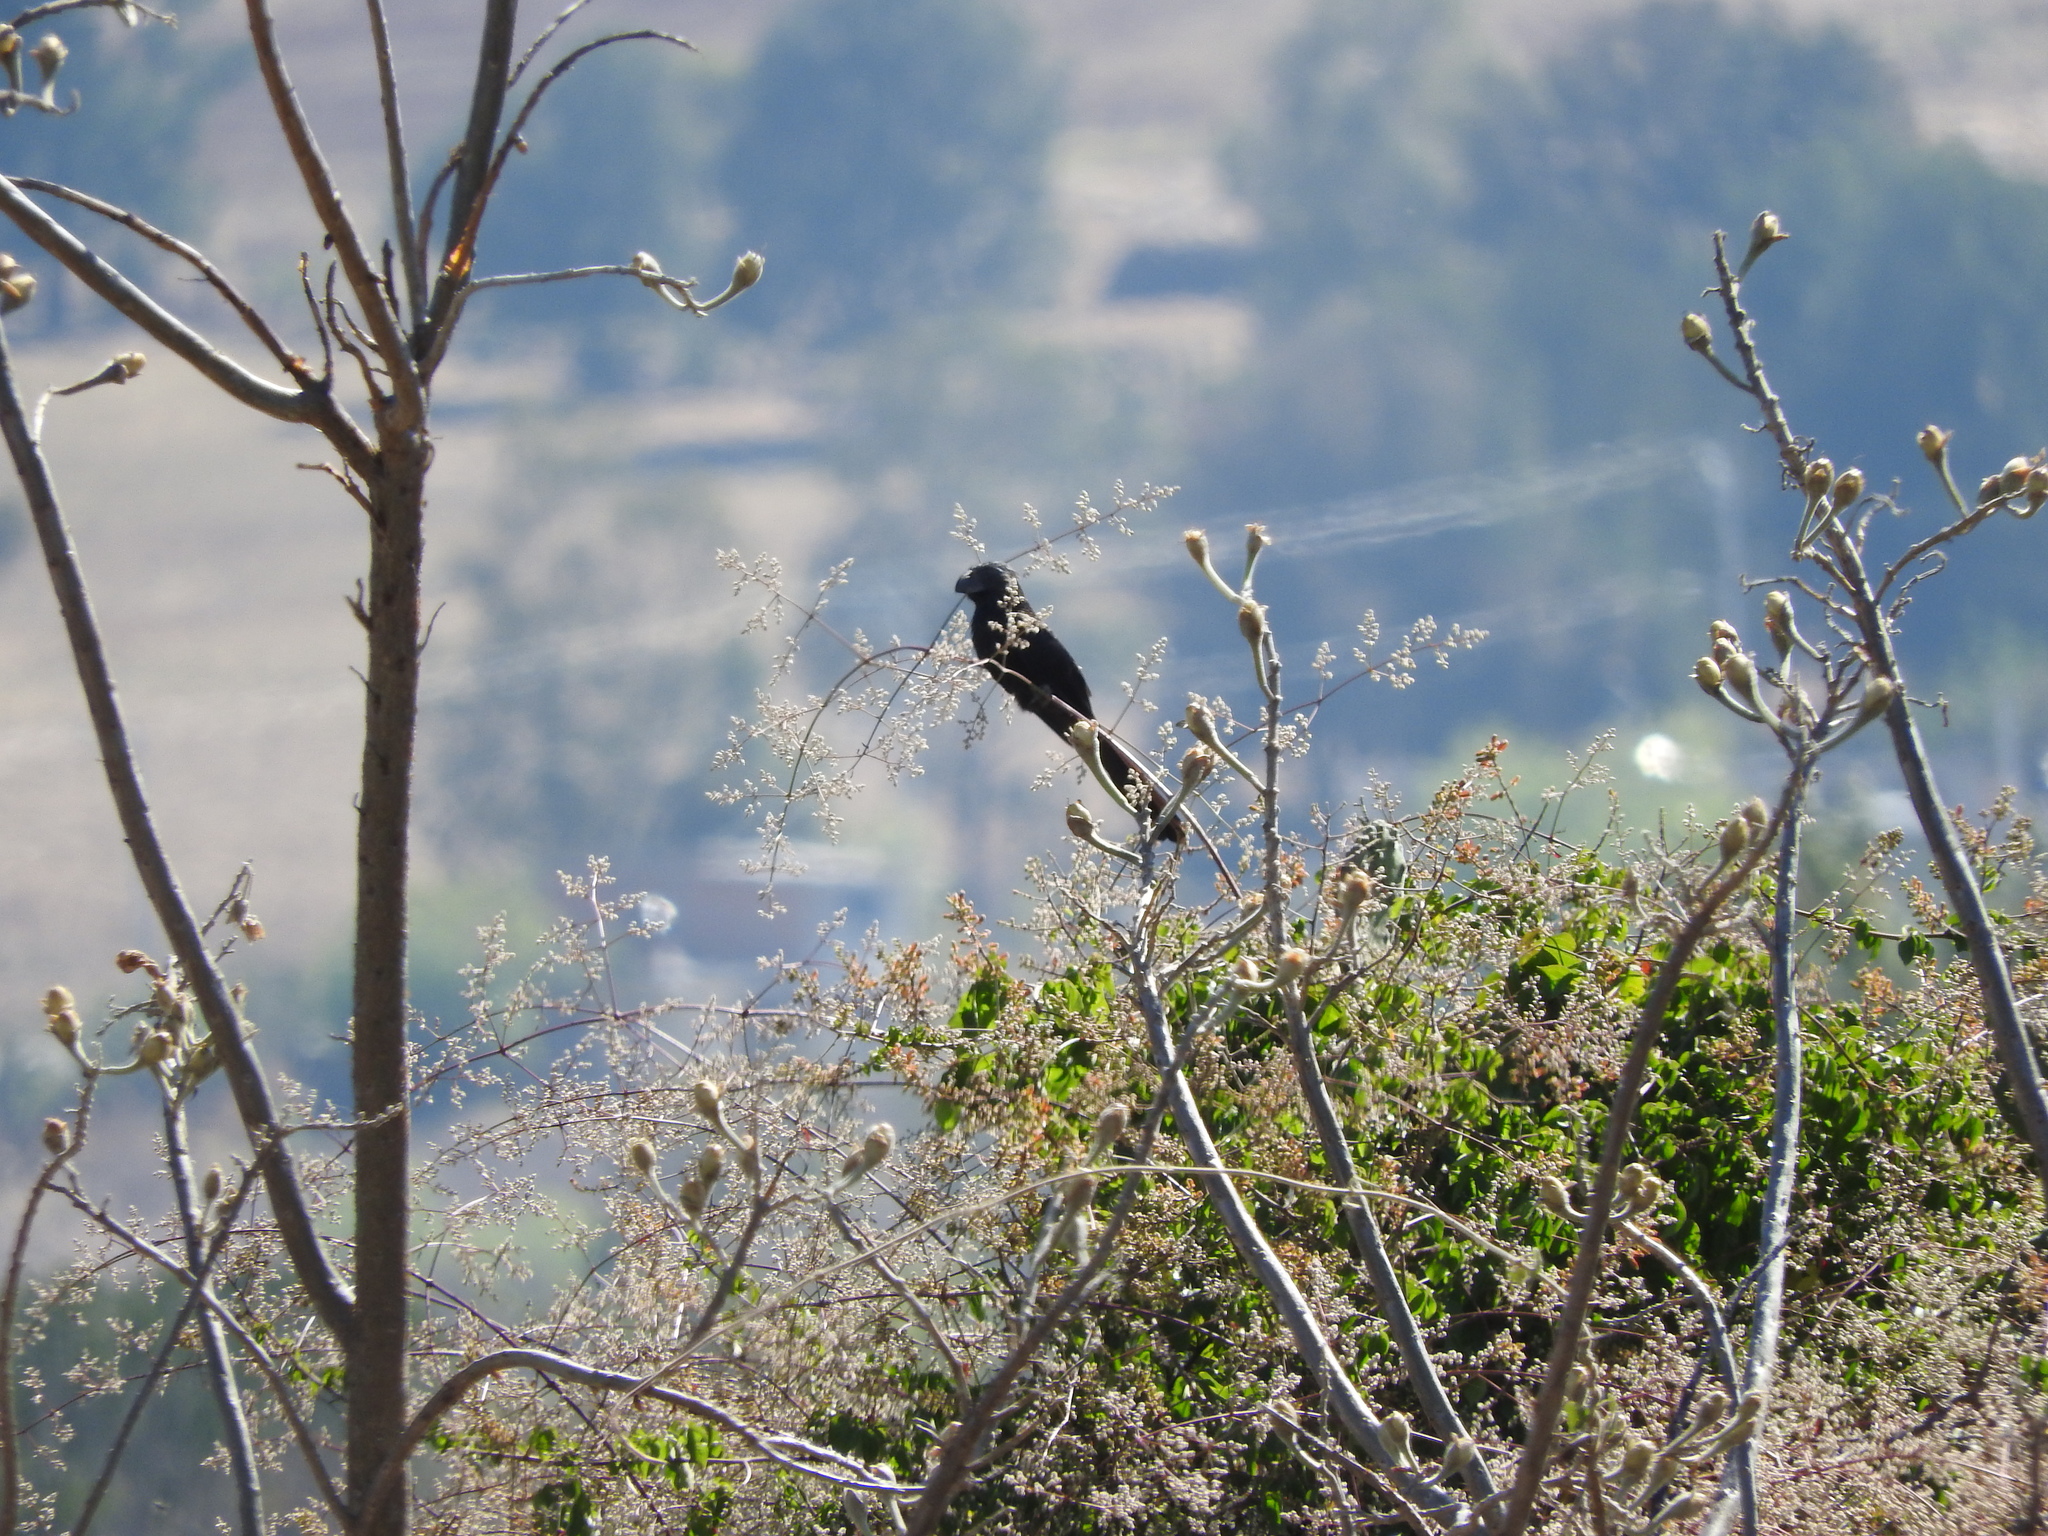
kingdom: Animalia
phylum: Chordata
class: Aves
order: Cuculiformes
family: Cuculidae
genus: Crotophaga
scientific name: Crotophaga sulcirostris
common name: Groove-billed ani
